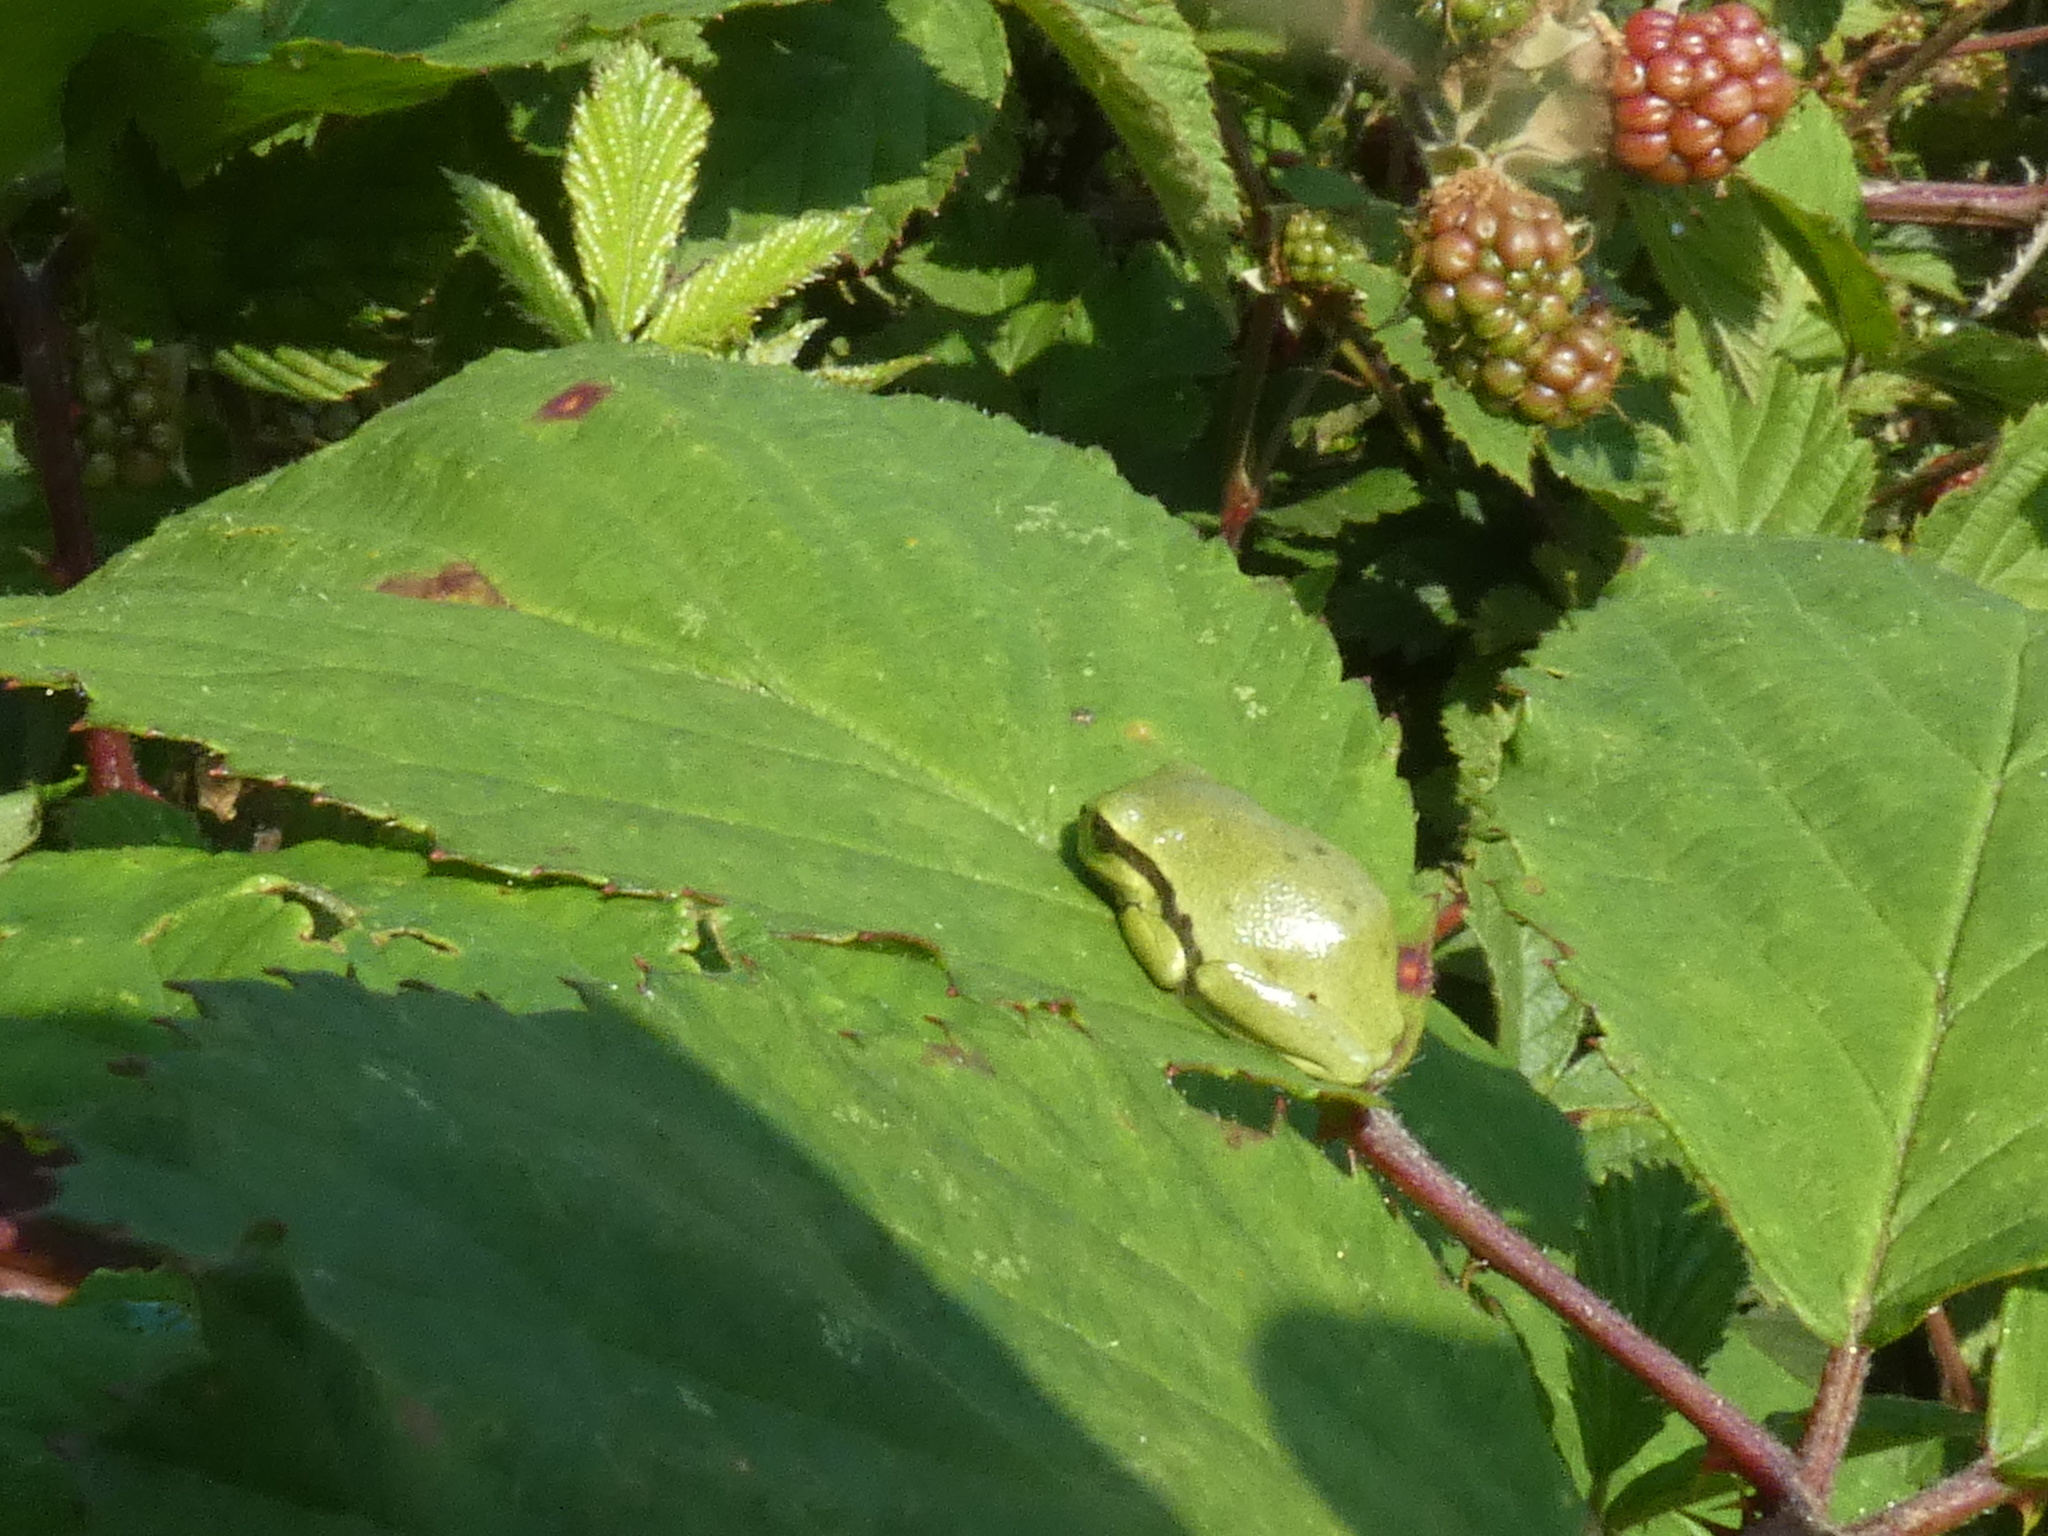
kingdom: Animalia
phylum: Chordata
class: Amphibia
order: Anura
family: Hylidae
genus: Hyla
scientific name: Hyla arborea
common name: Common tree frog
